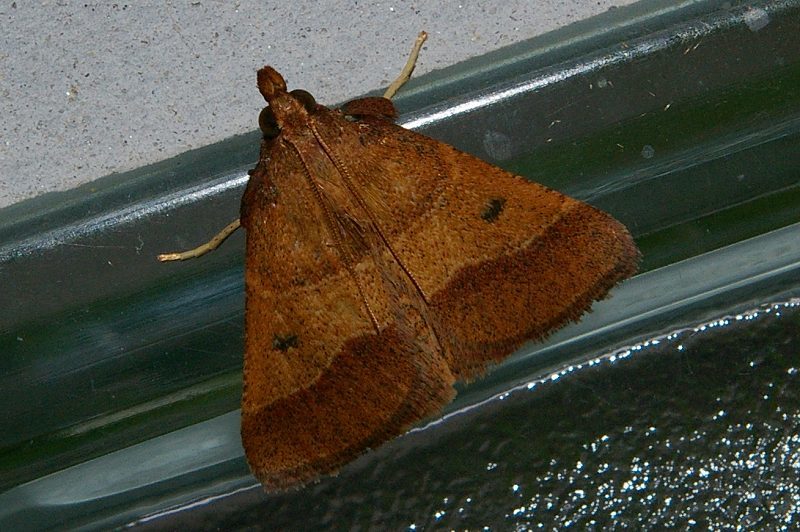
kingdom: Animalia
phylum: Arthropoda
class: Insecta
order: Lepidoptera
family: Pyralidae
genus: Arippara
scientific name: Arippara indicator
